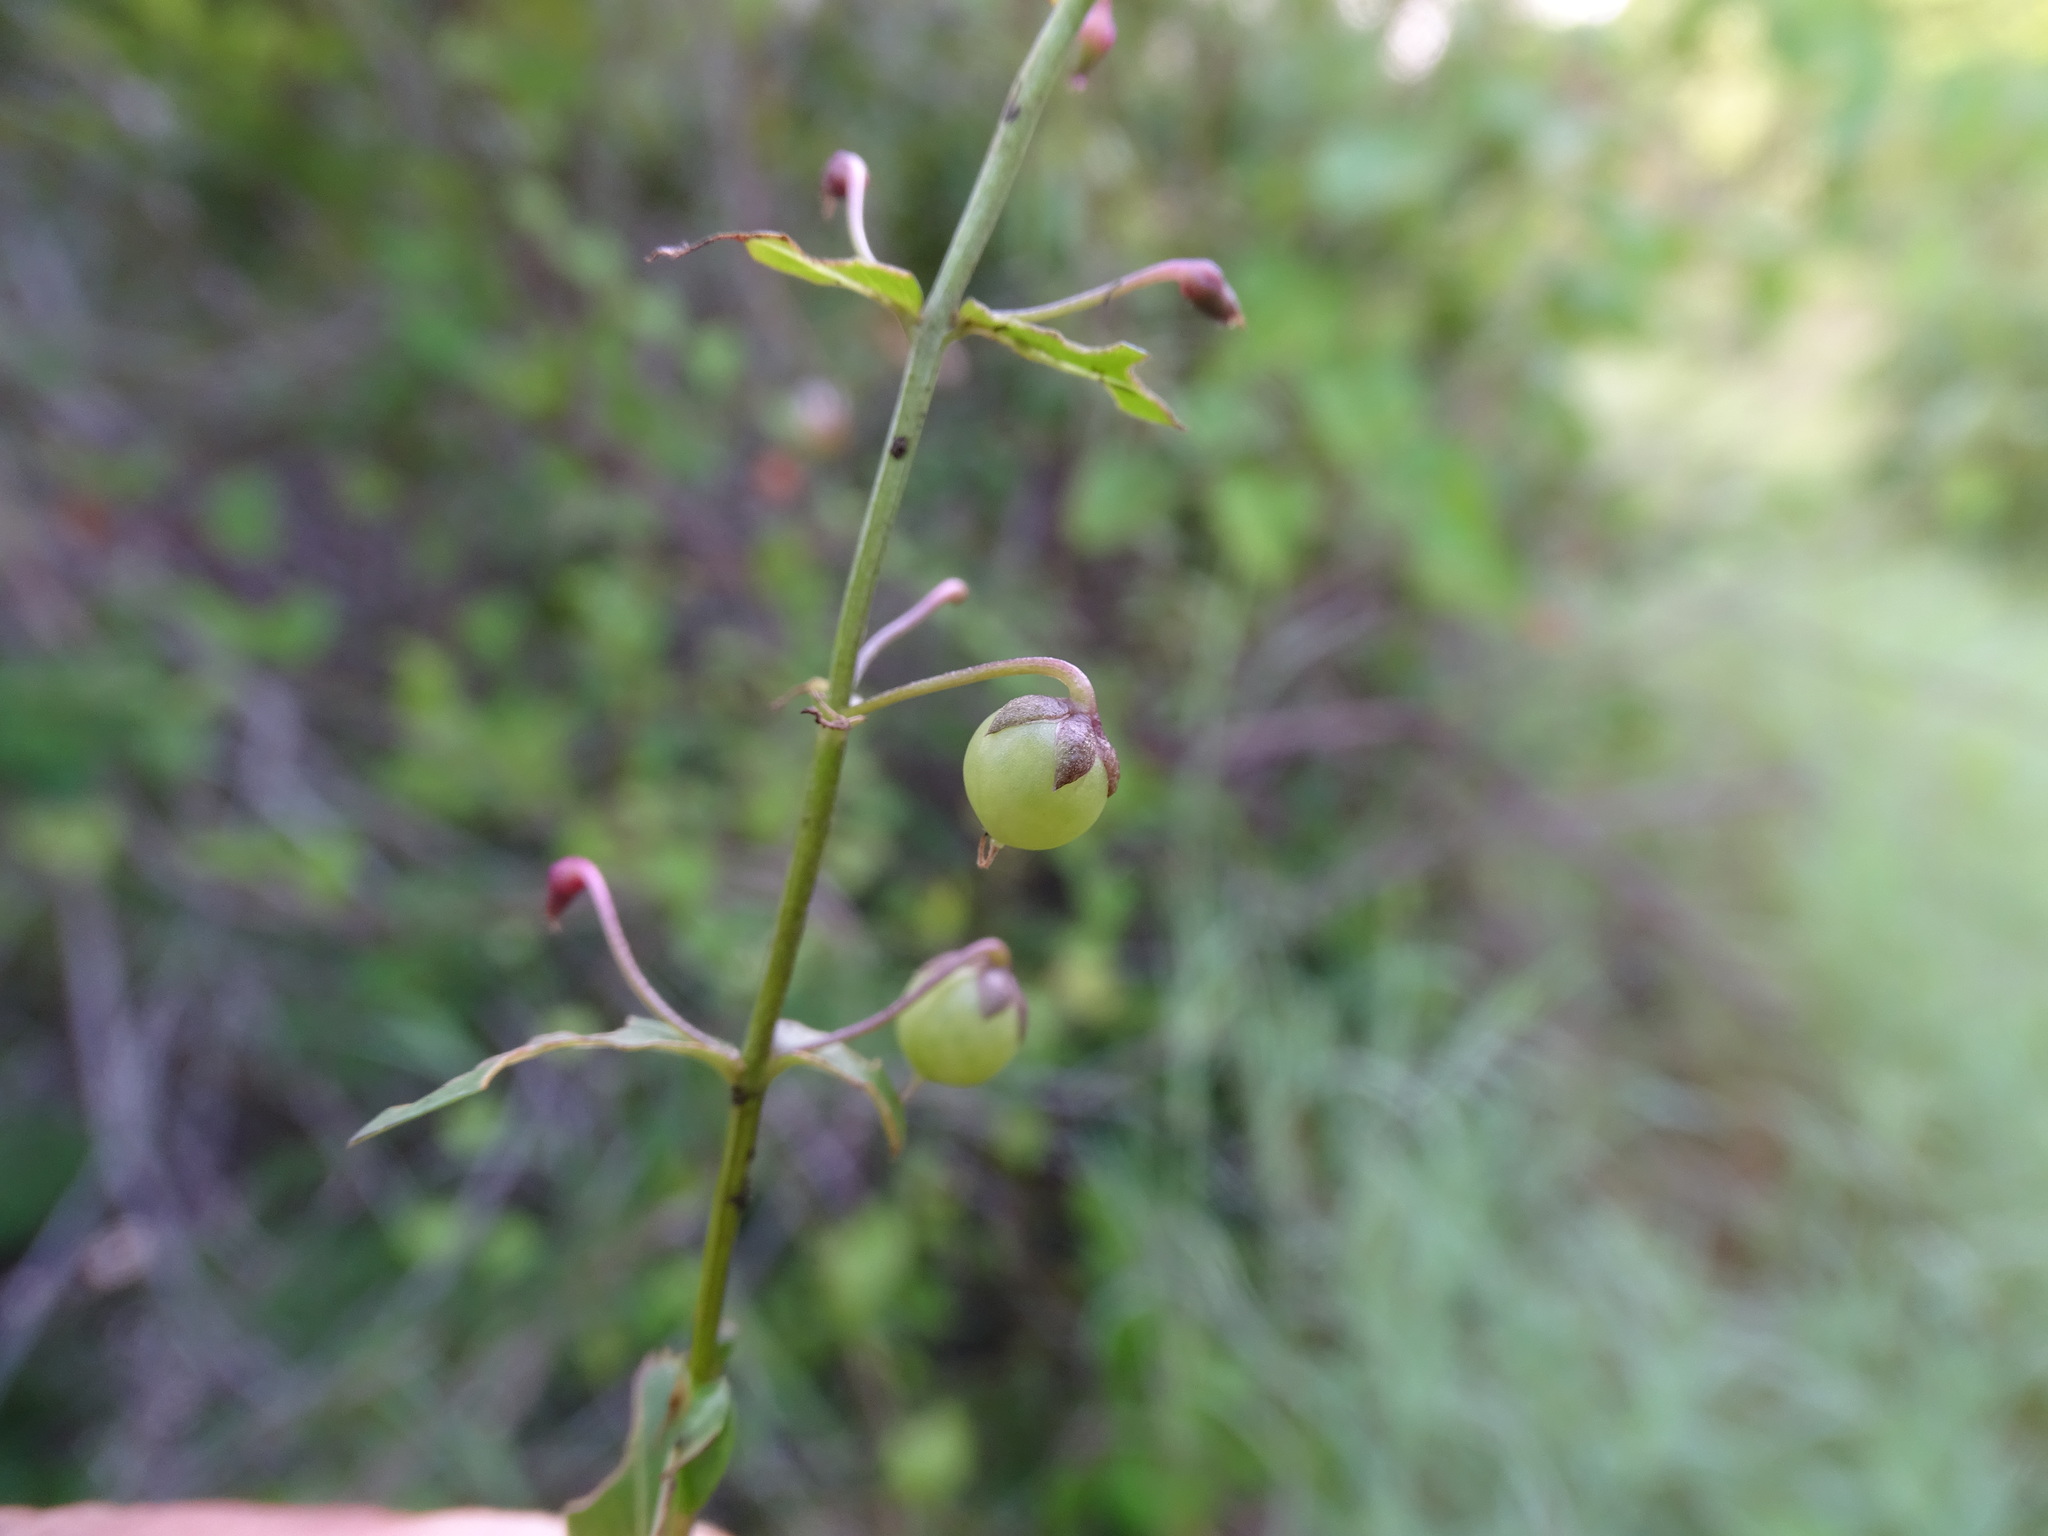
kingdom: Plantae
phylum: Tracheophyta
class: Magnoliopsida
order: Lamiales
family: Plantaginaceae
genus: Angelonia
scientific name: Angelonia angustifolia
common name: Narrowleaf angelon
